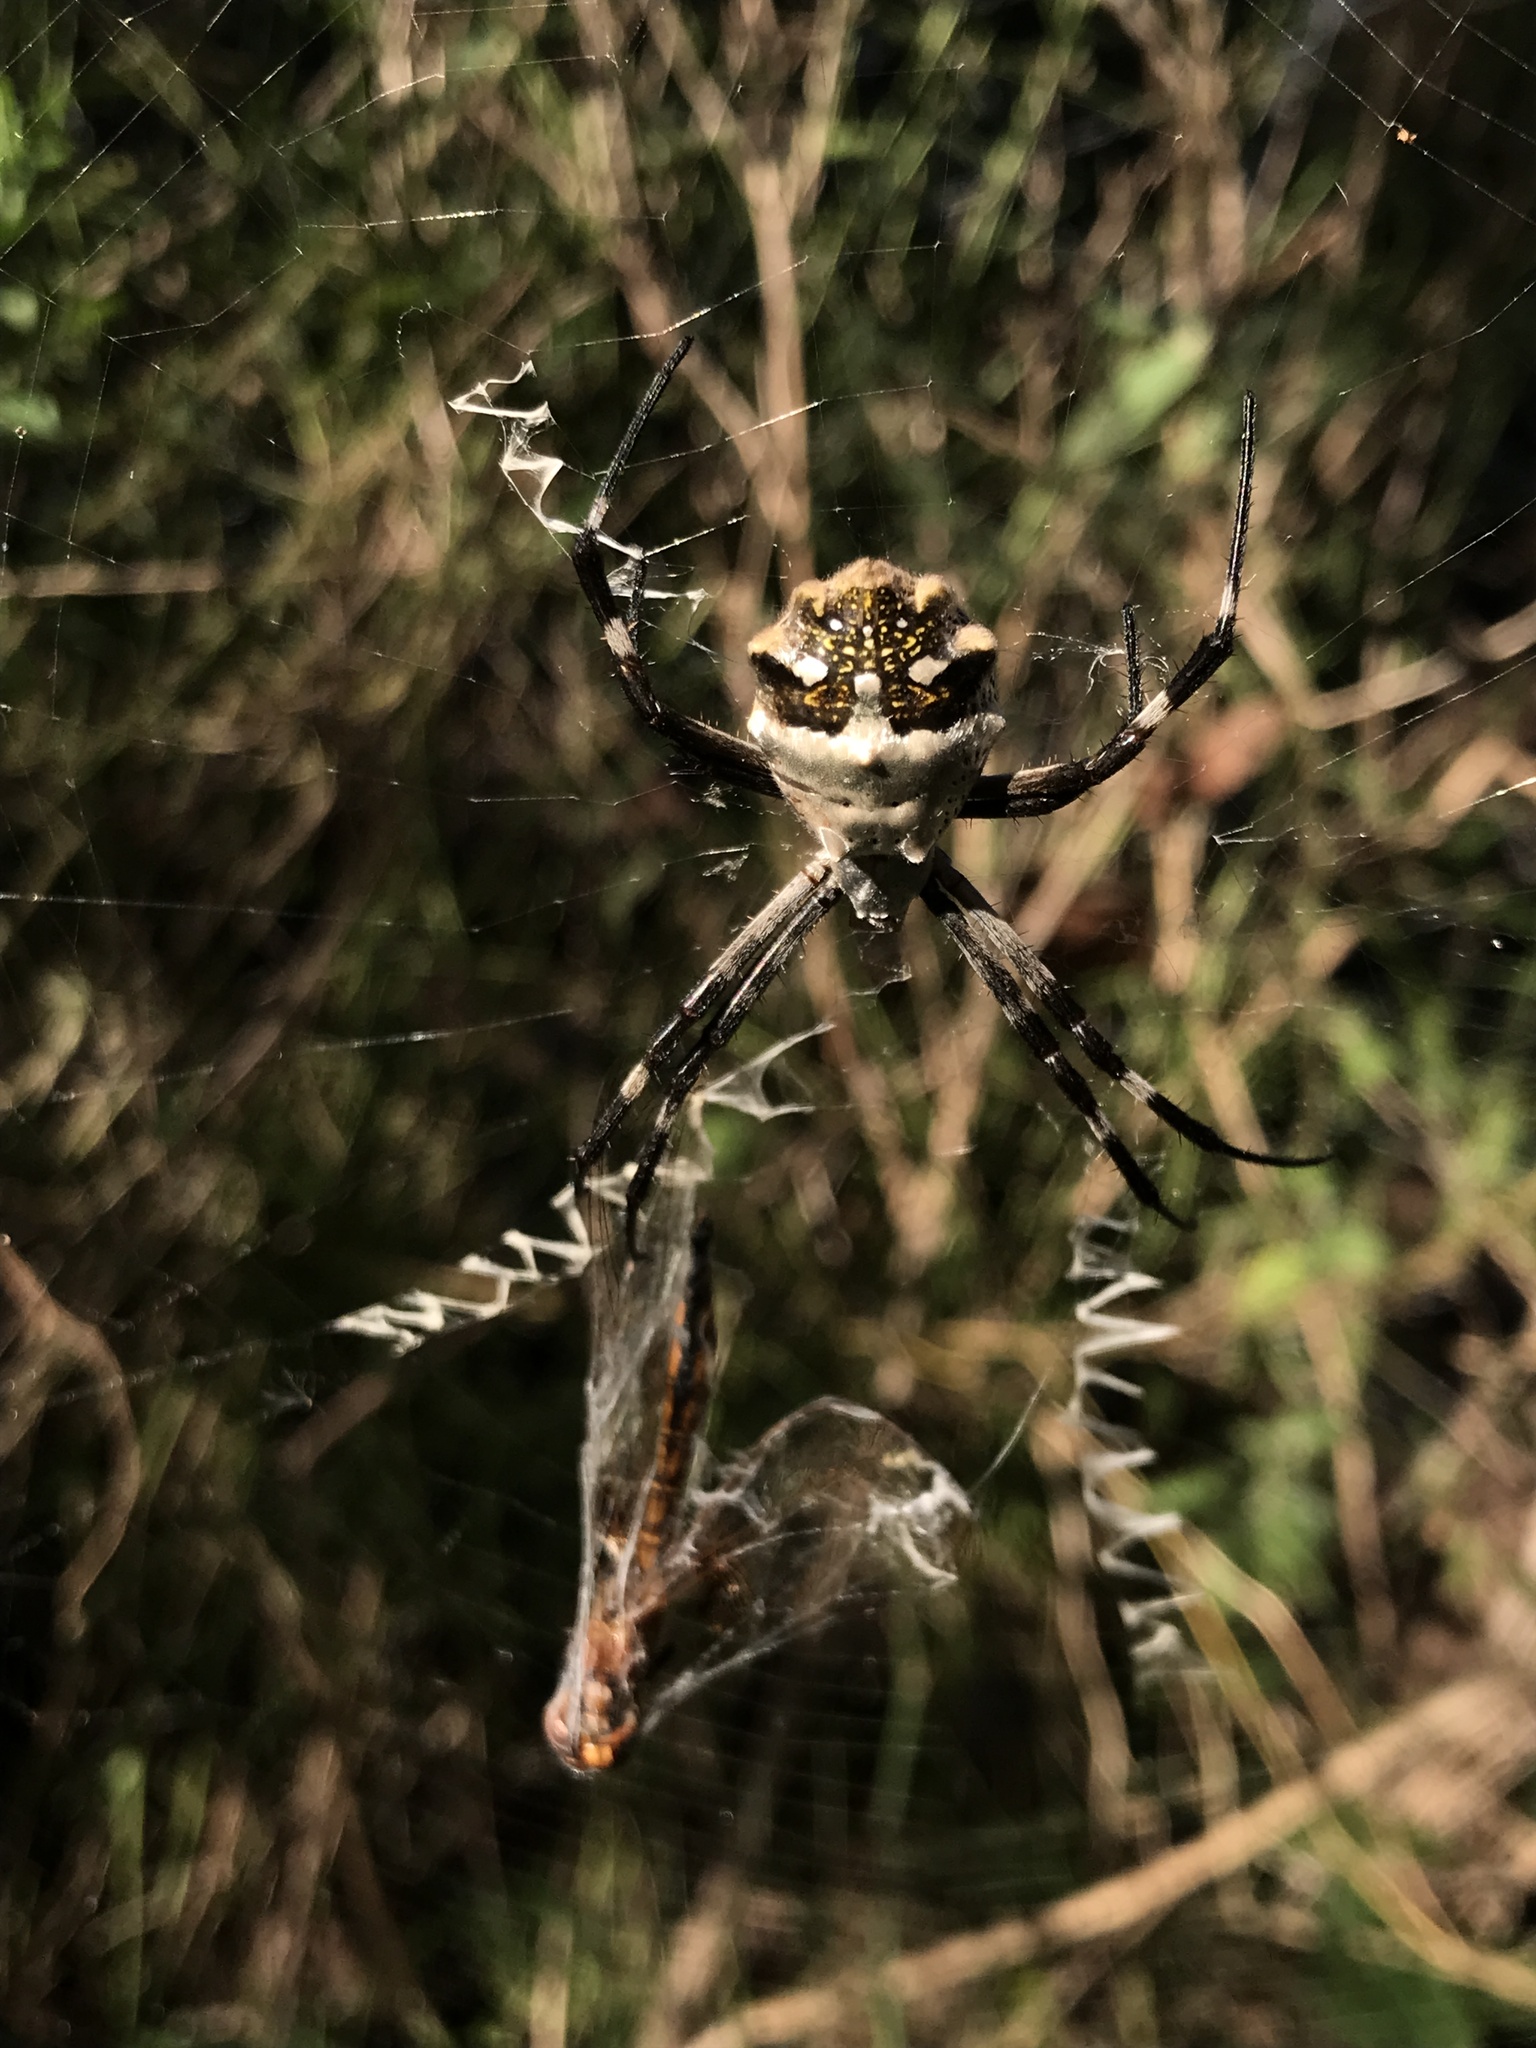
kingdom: Animalia
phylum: Arthropoda
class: Arachnida
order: Araneae
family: Araneidae
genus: Argiope
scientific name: Argiope argentata
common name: Orb weavers
